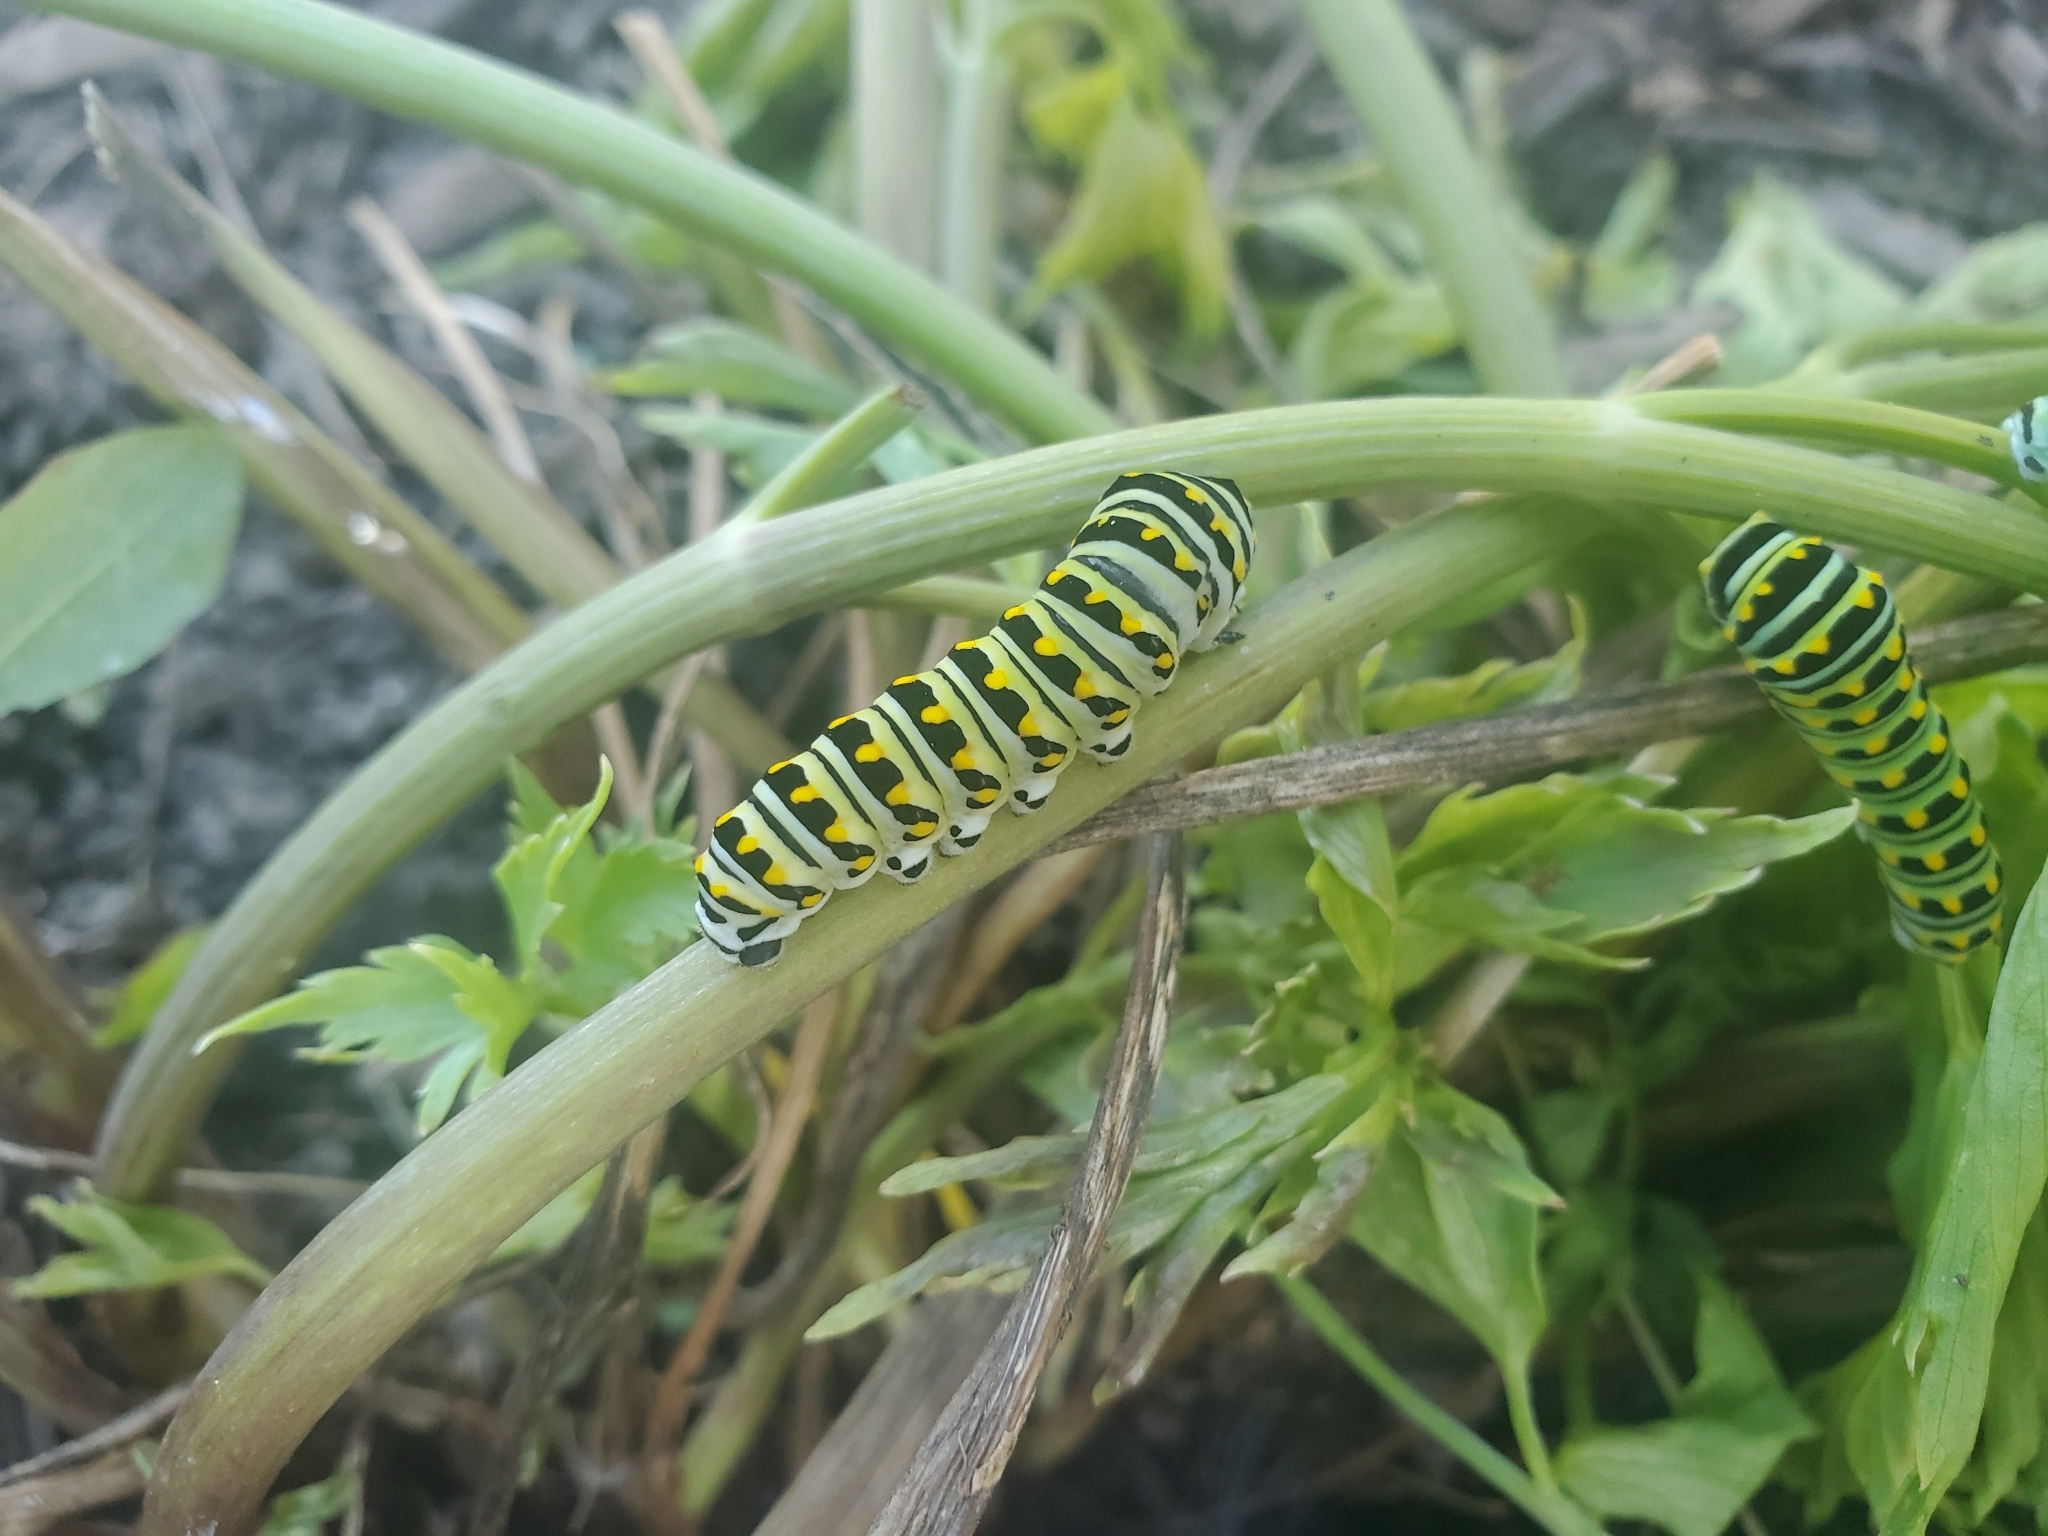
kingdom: Animalia
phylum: Arthropoda
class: Insecta
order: Lepidoptera
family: Papilionidae
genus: Papilio
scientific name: Papilio polyxenes
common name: Black swallowtail
